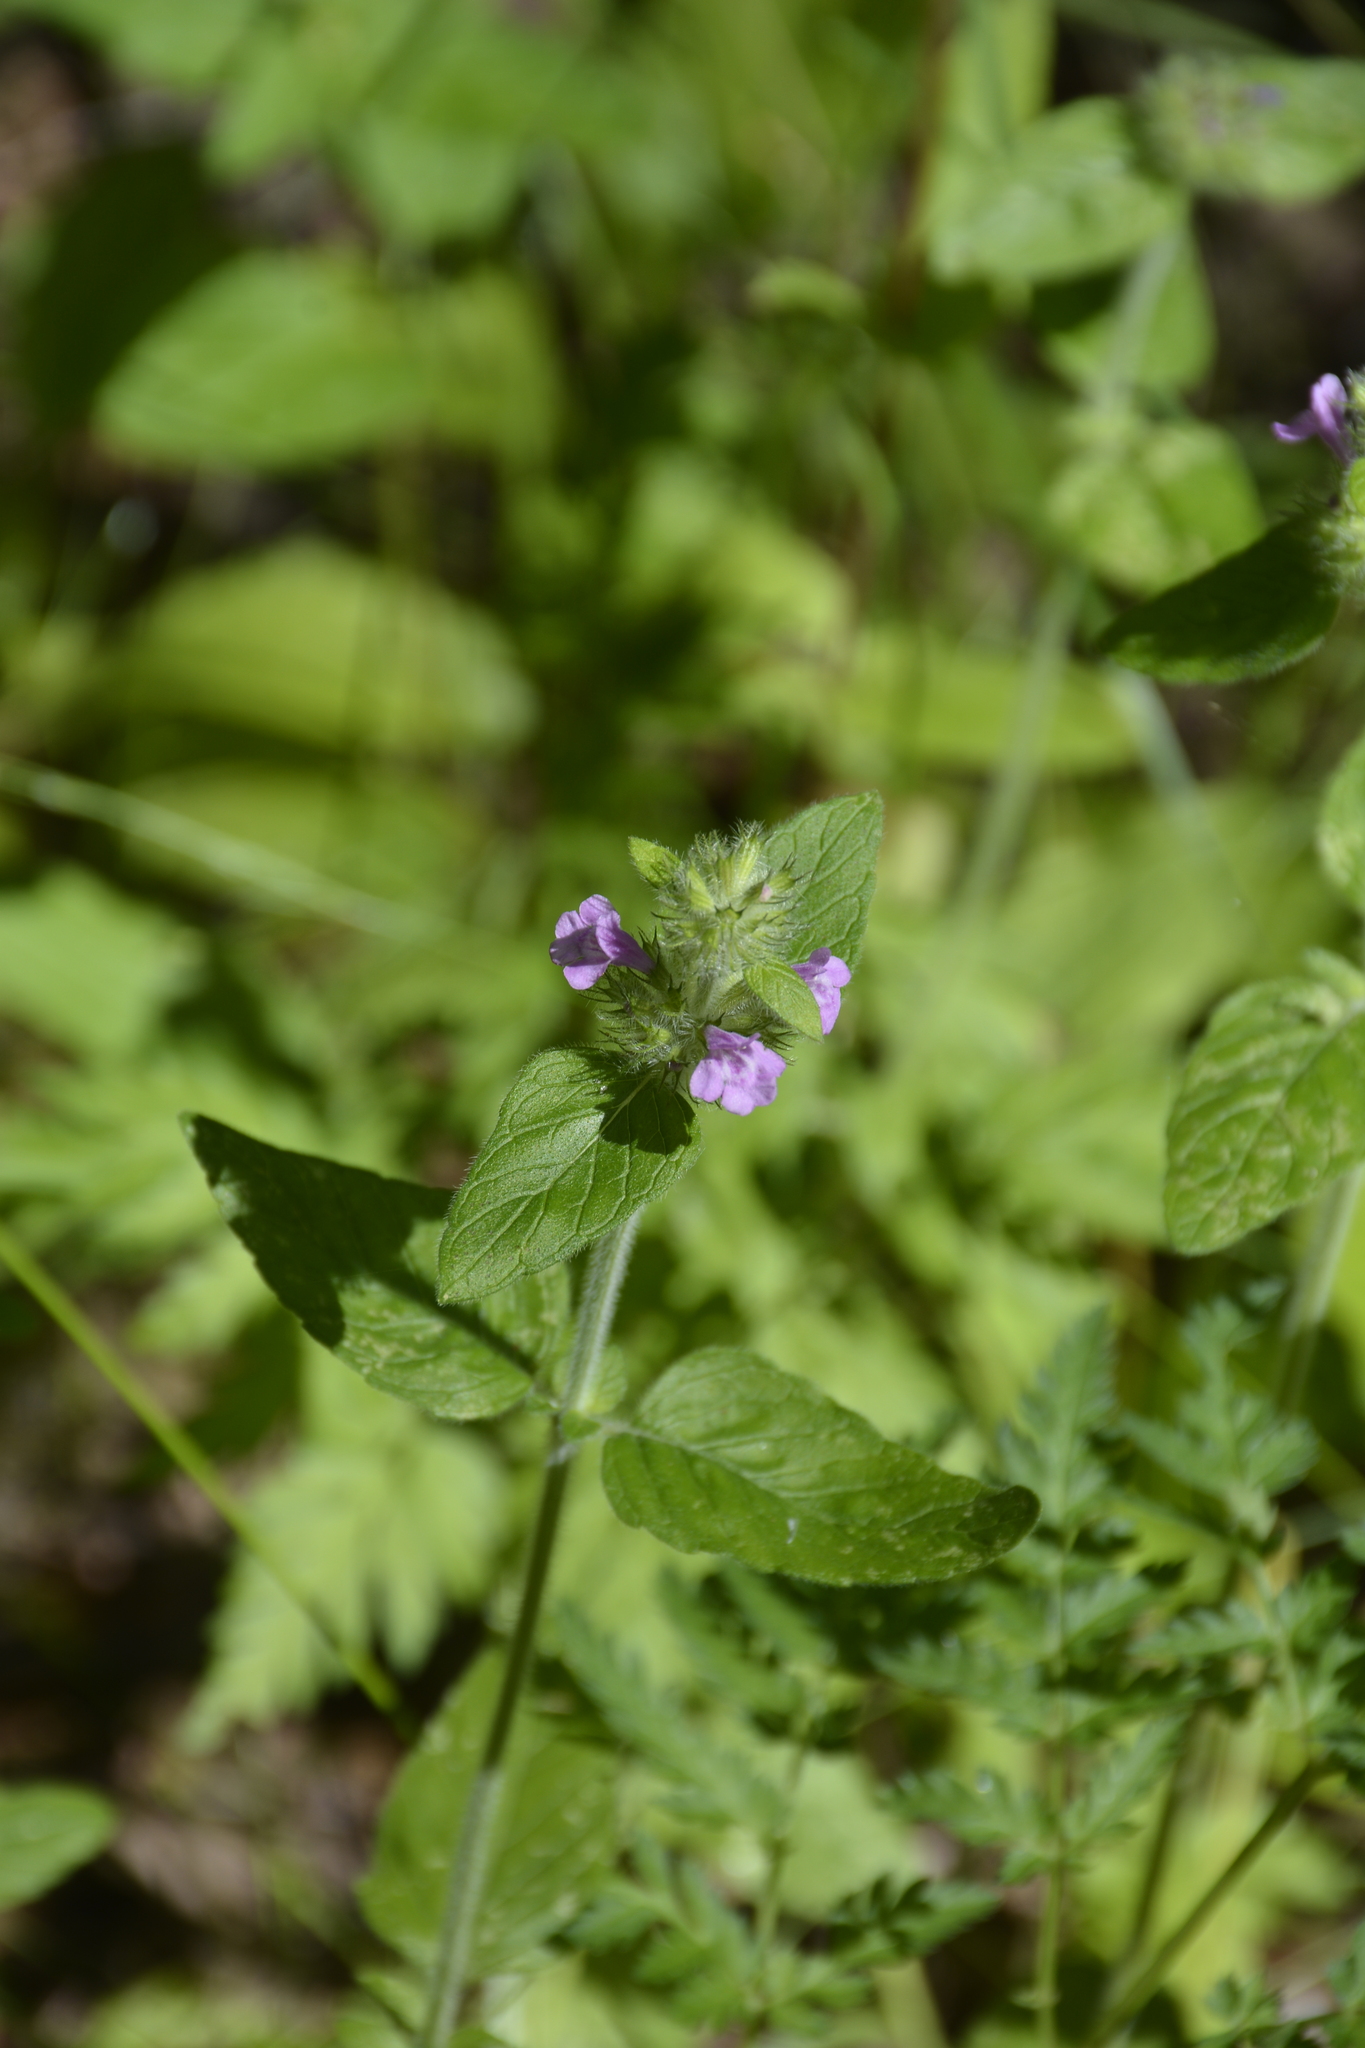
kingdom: Plantae
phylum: Tracheophyta
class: Magnoliopsida
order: Lamiales
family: Lamiaceae
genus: Clinopodium
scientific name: Clinopodium vulgare
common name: Wild basil
